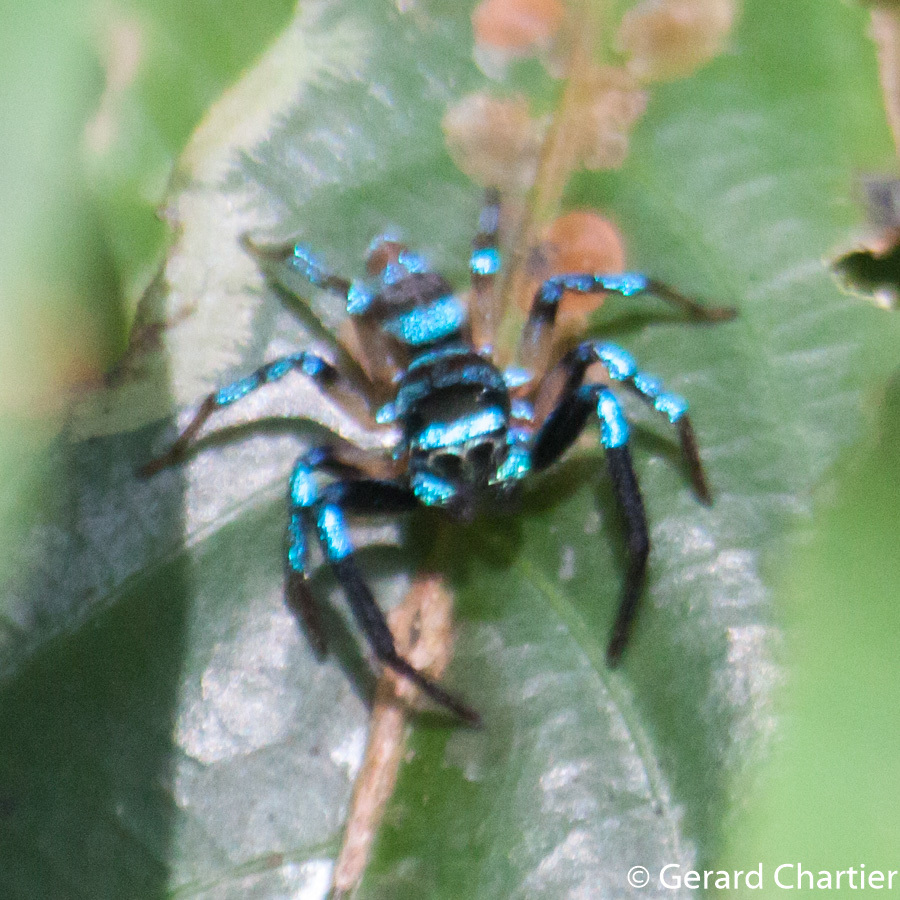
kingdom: Animalia
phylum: Arthropoda
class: Arachnida
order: Araneae
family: Salticidae
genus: Thiania
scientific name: Thiania bhamoensis
